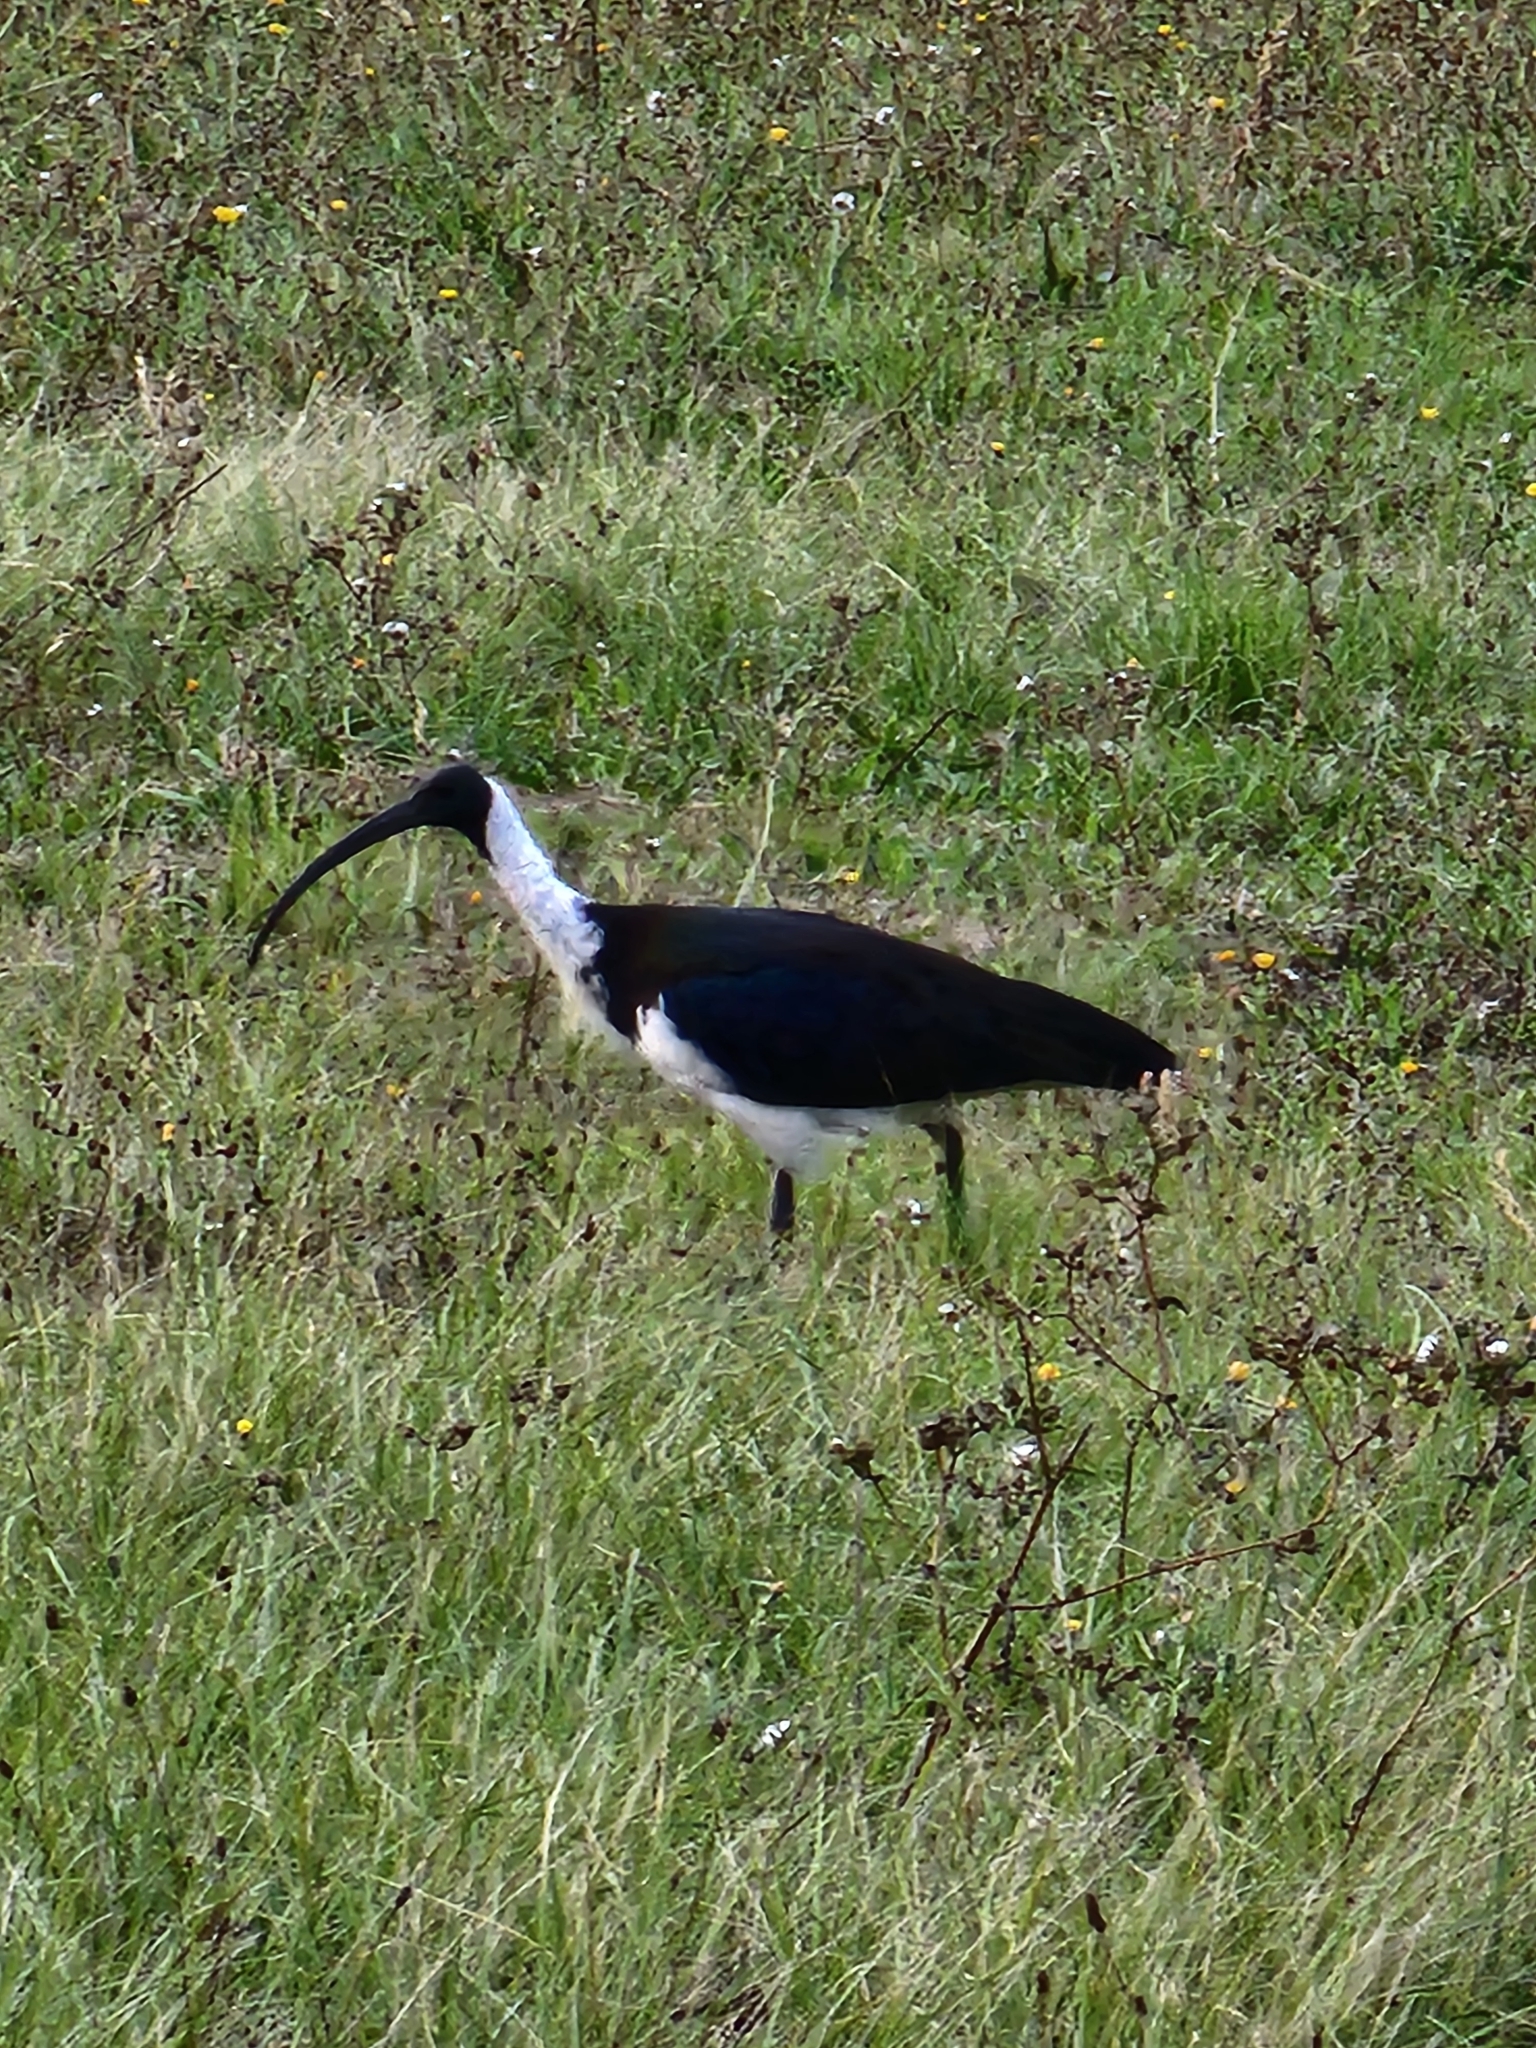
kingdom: Animalia
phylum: Chordata
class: Aves
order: Pelecaniformes
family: Threskiornithidae
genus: Threskiornis
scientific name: Threskiornis spinicollis
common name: Straw-necked ibis
